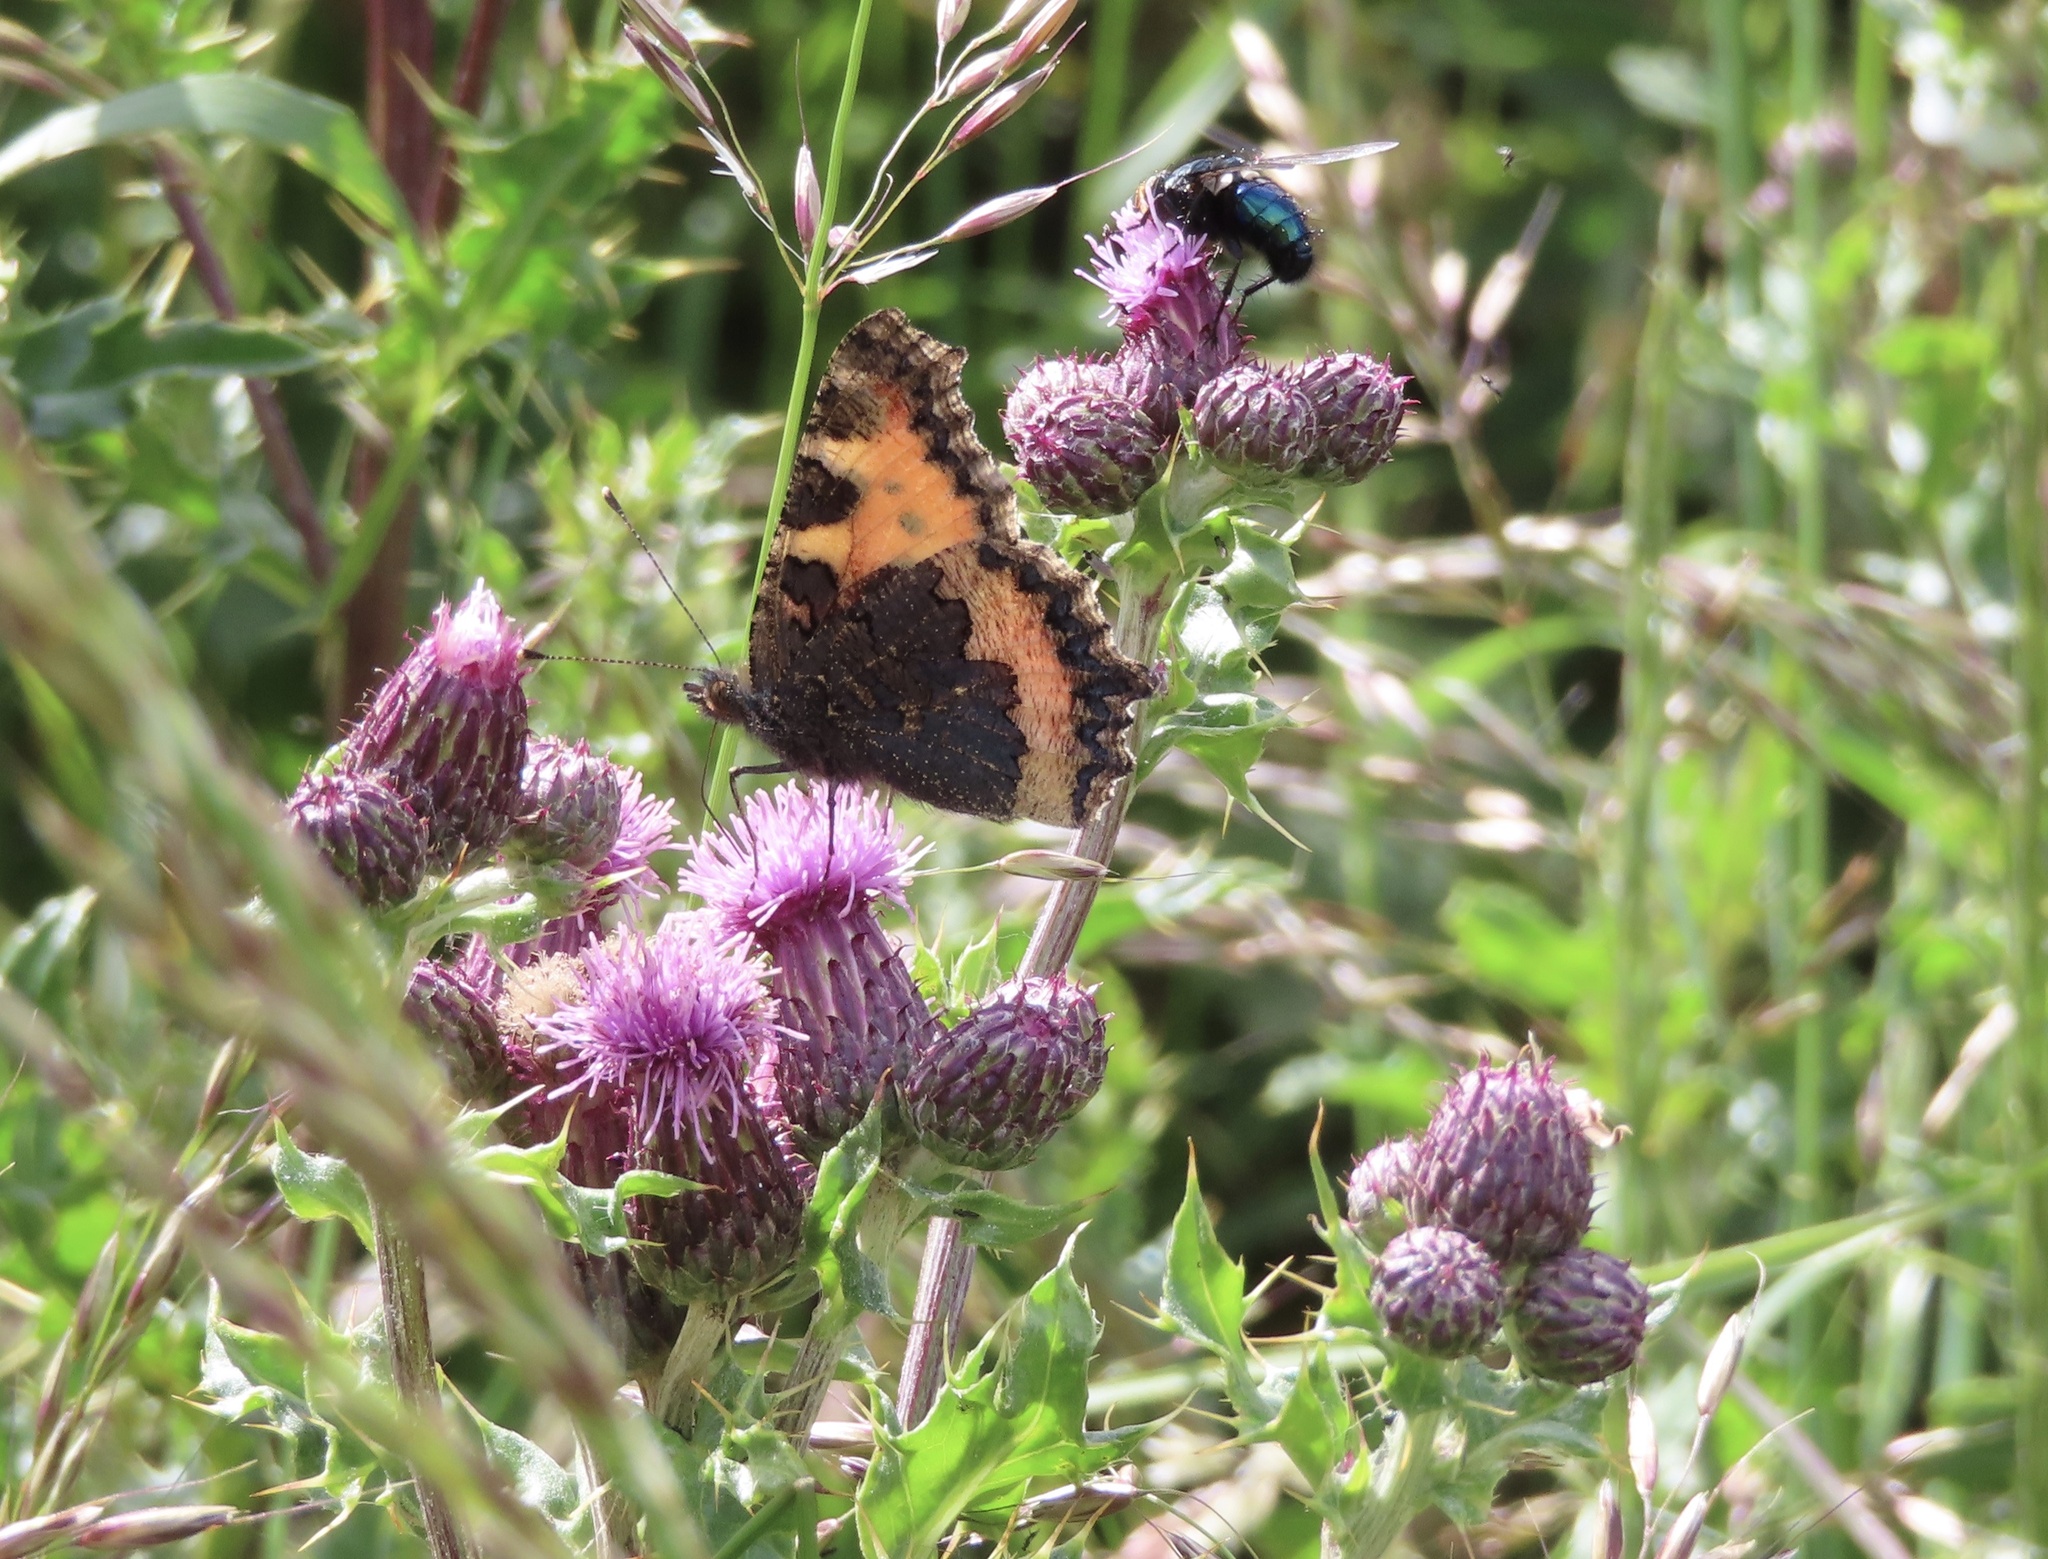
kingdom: Animalia
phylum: Arthropoda
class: Insecta
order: Lepidoptera
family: Nymphalidae
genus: Aglais
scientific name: Aglais urticae
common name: Small tortoiseshell
